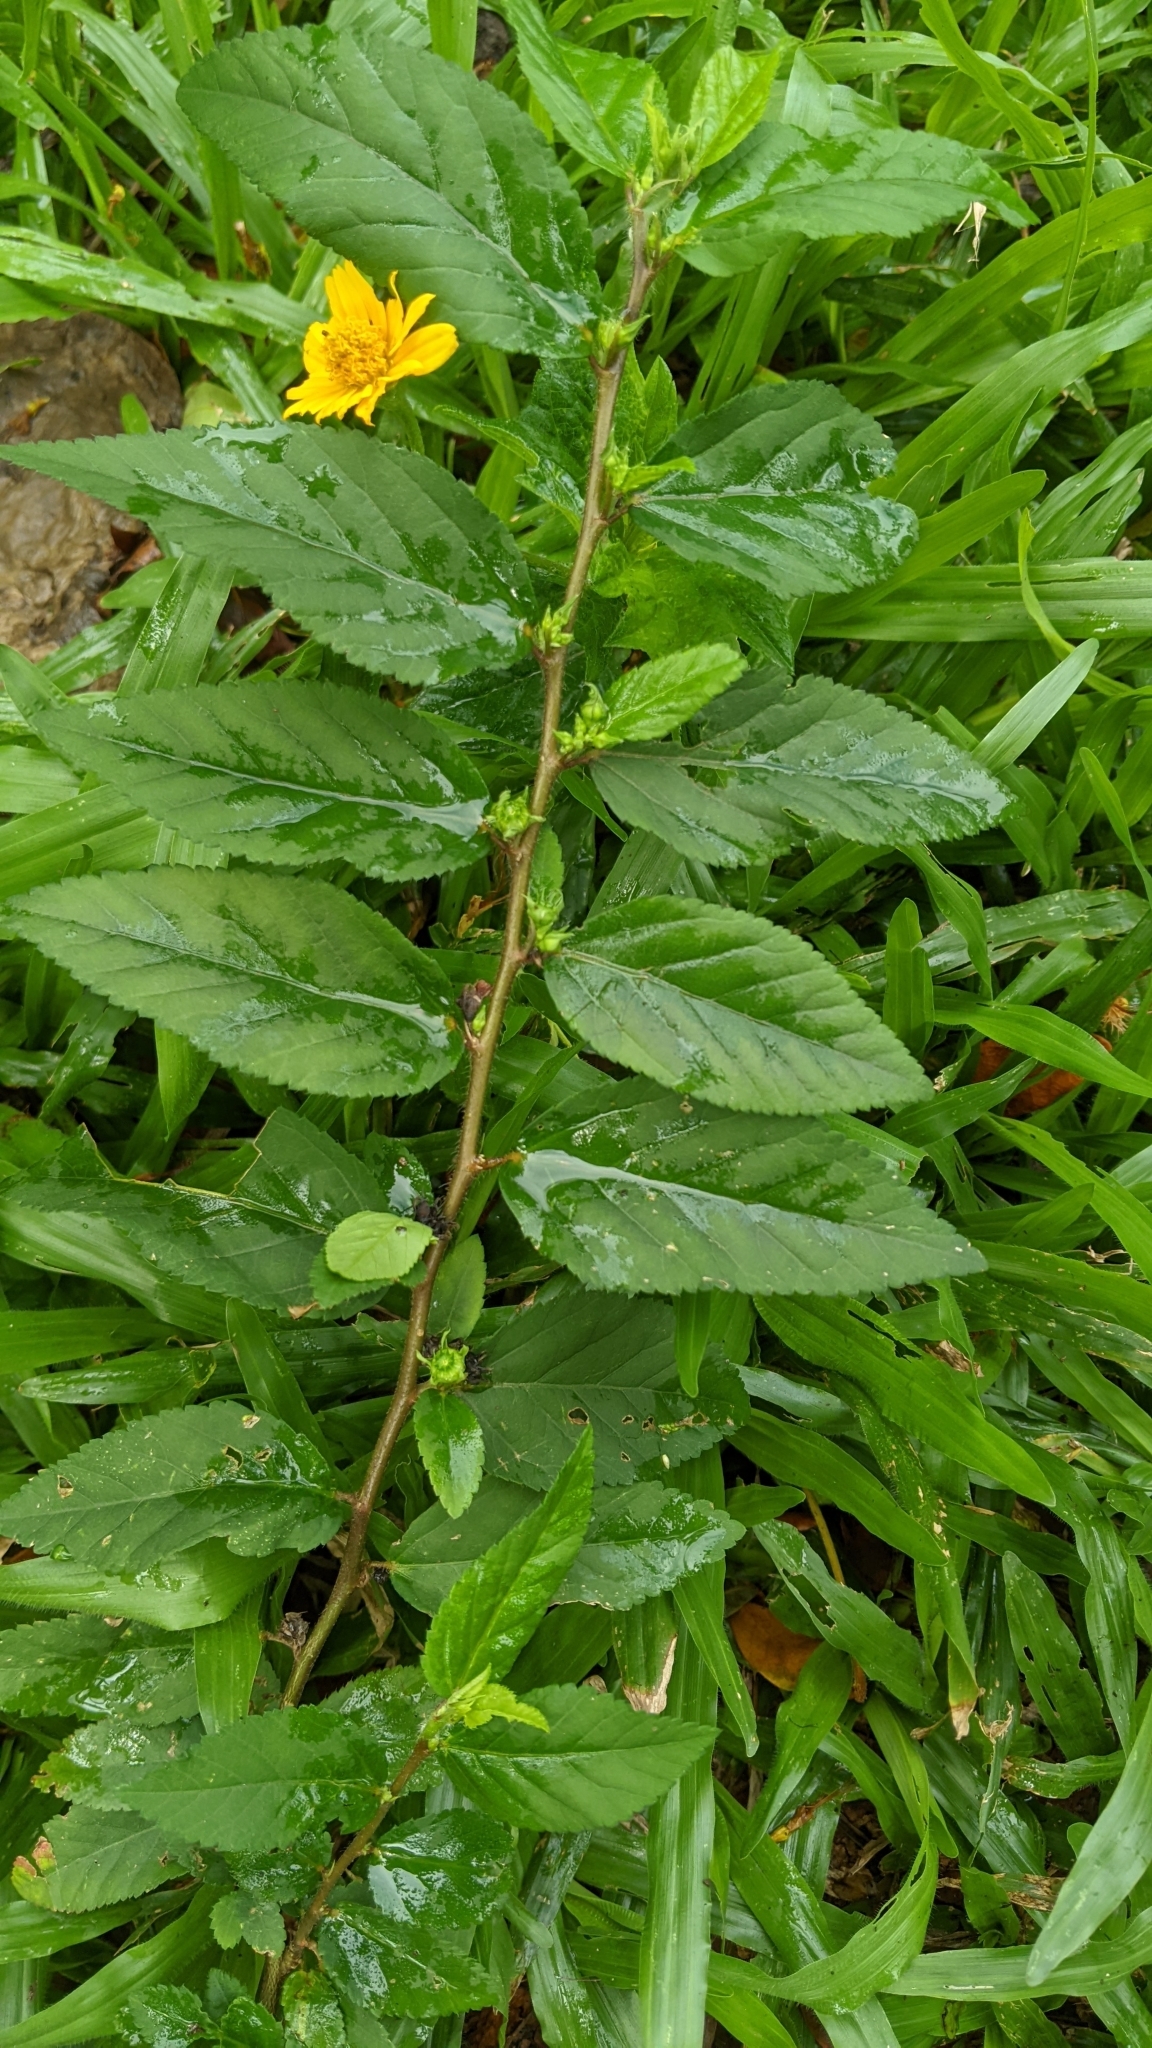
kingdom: Plantae
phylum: Tracheophyta
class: Magnoliopsida
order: Malvales
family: Malvaceae
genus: Sida
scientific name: Sida acuta
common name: Common wireweed
